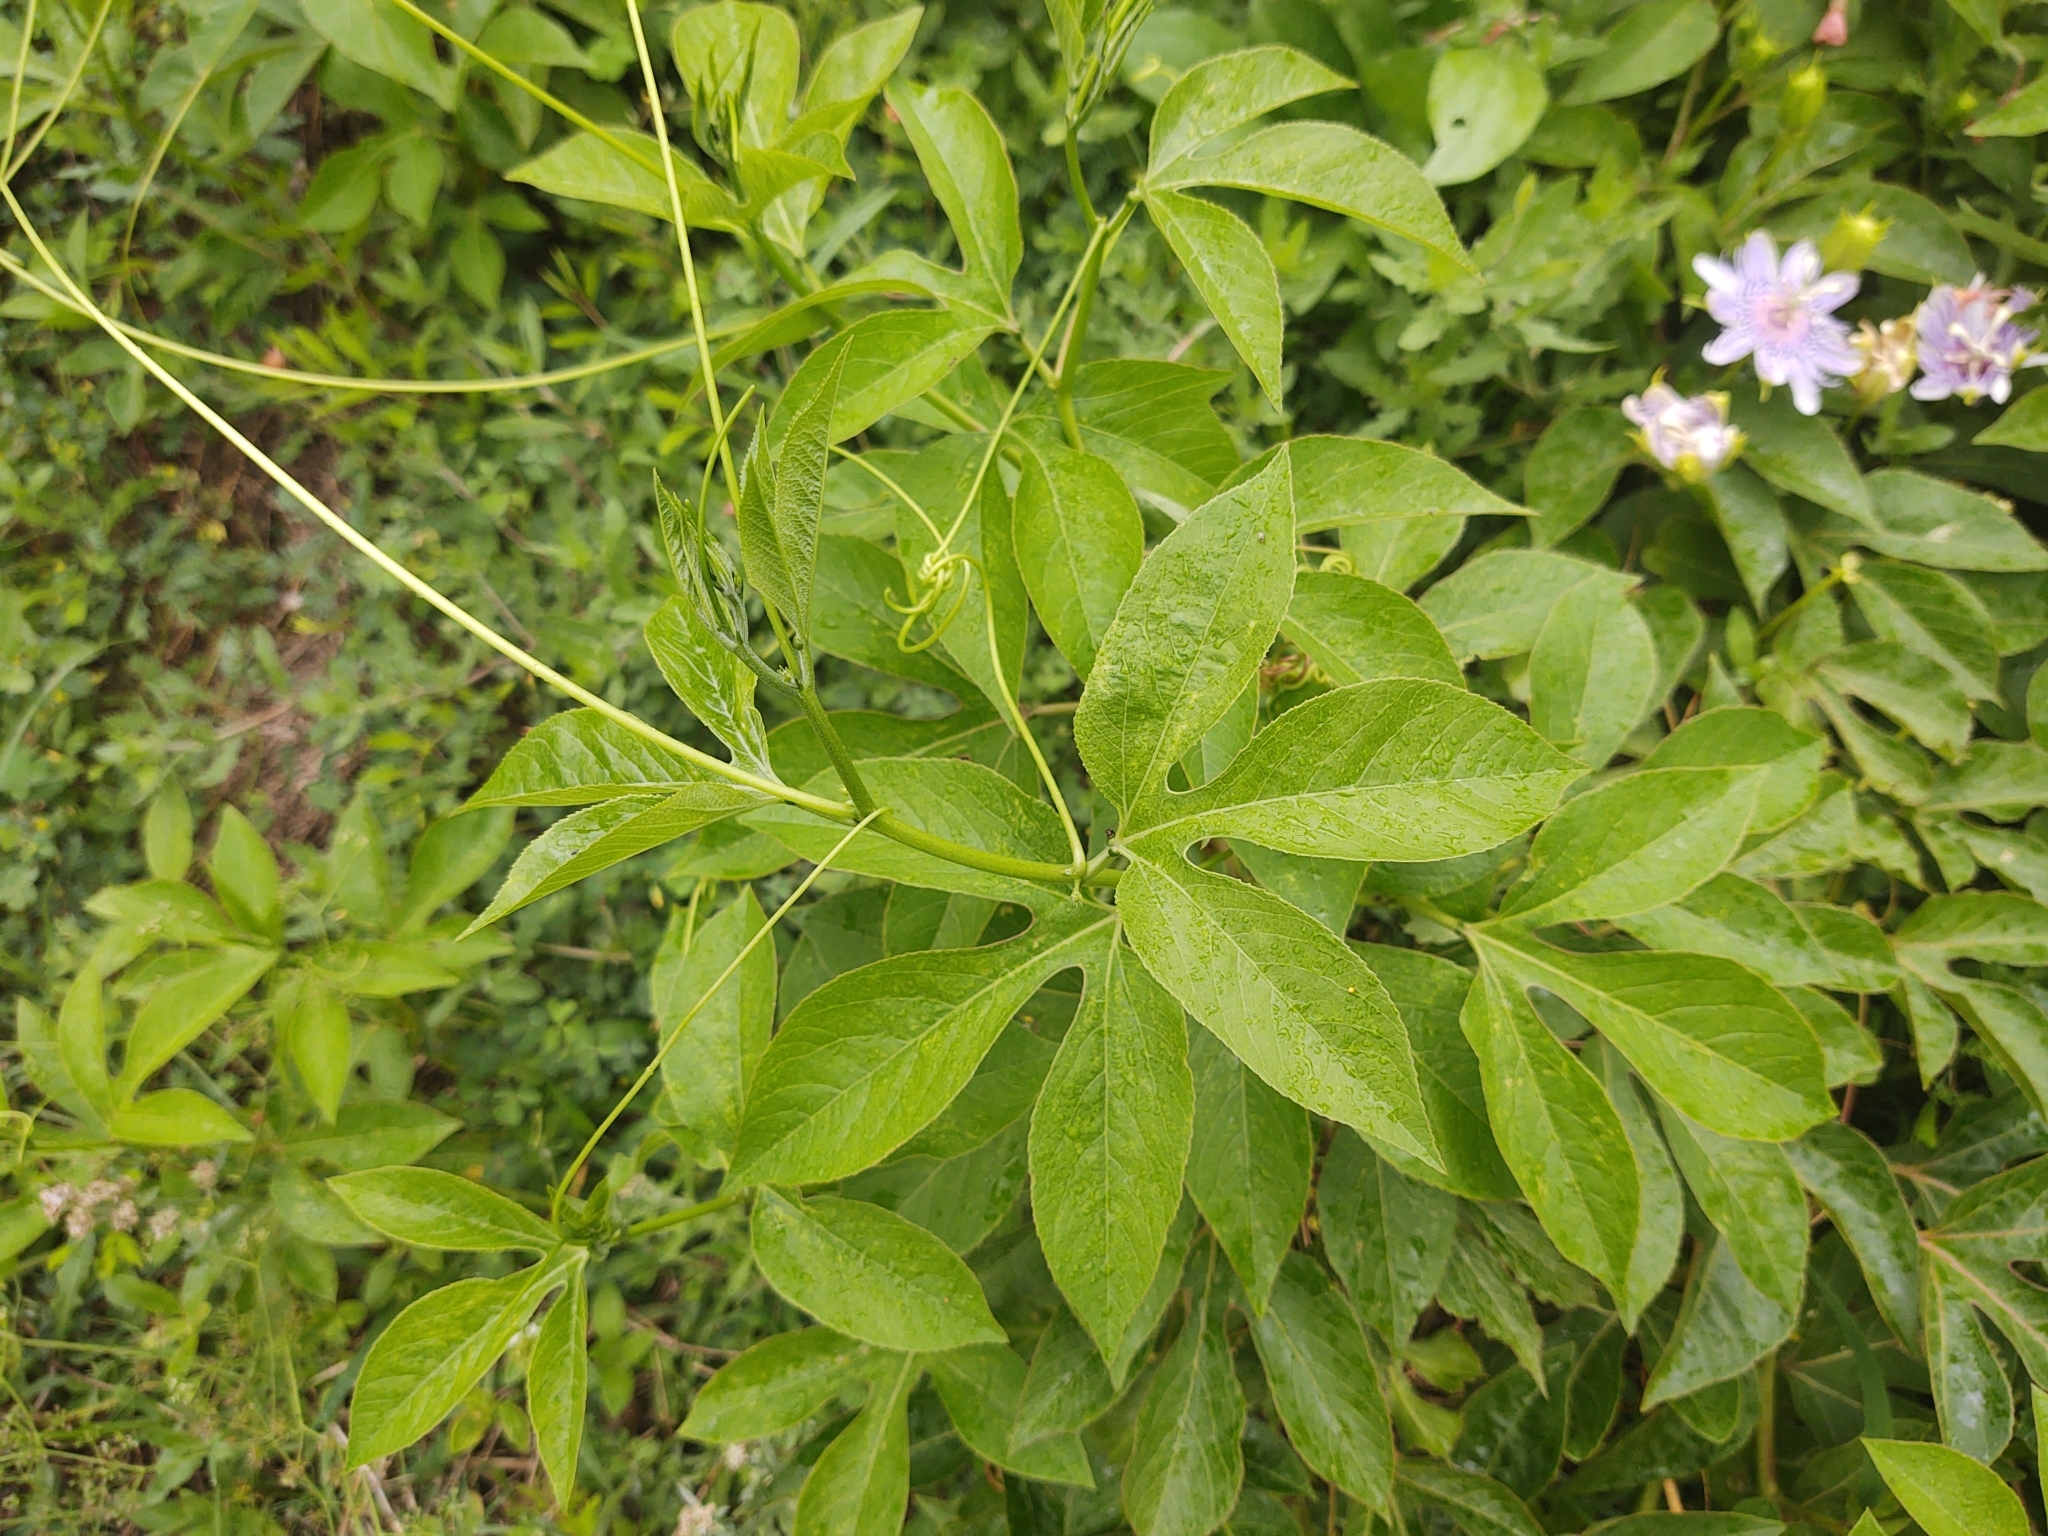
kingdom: Plantae
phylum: Tracheophyta
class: Magnoliopsida
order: Malpighiales
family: Passifloraceae
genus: Passiflora
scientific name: Passiflora incarnata
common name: Apricot-vine
